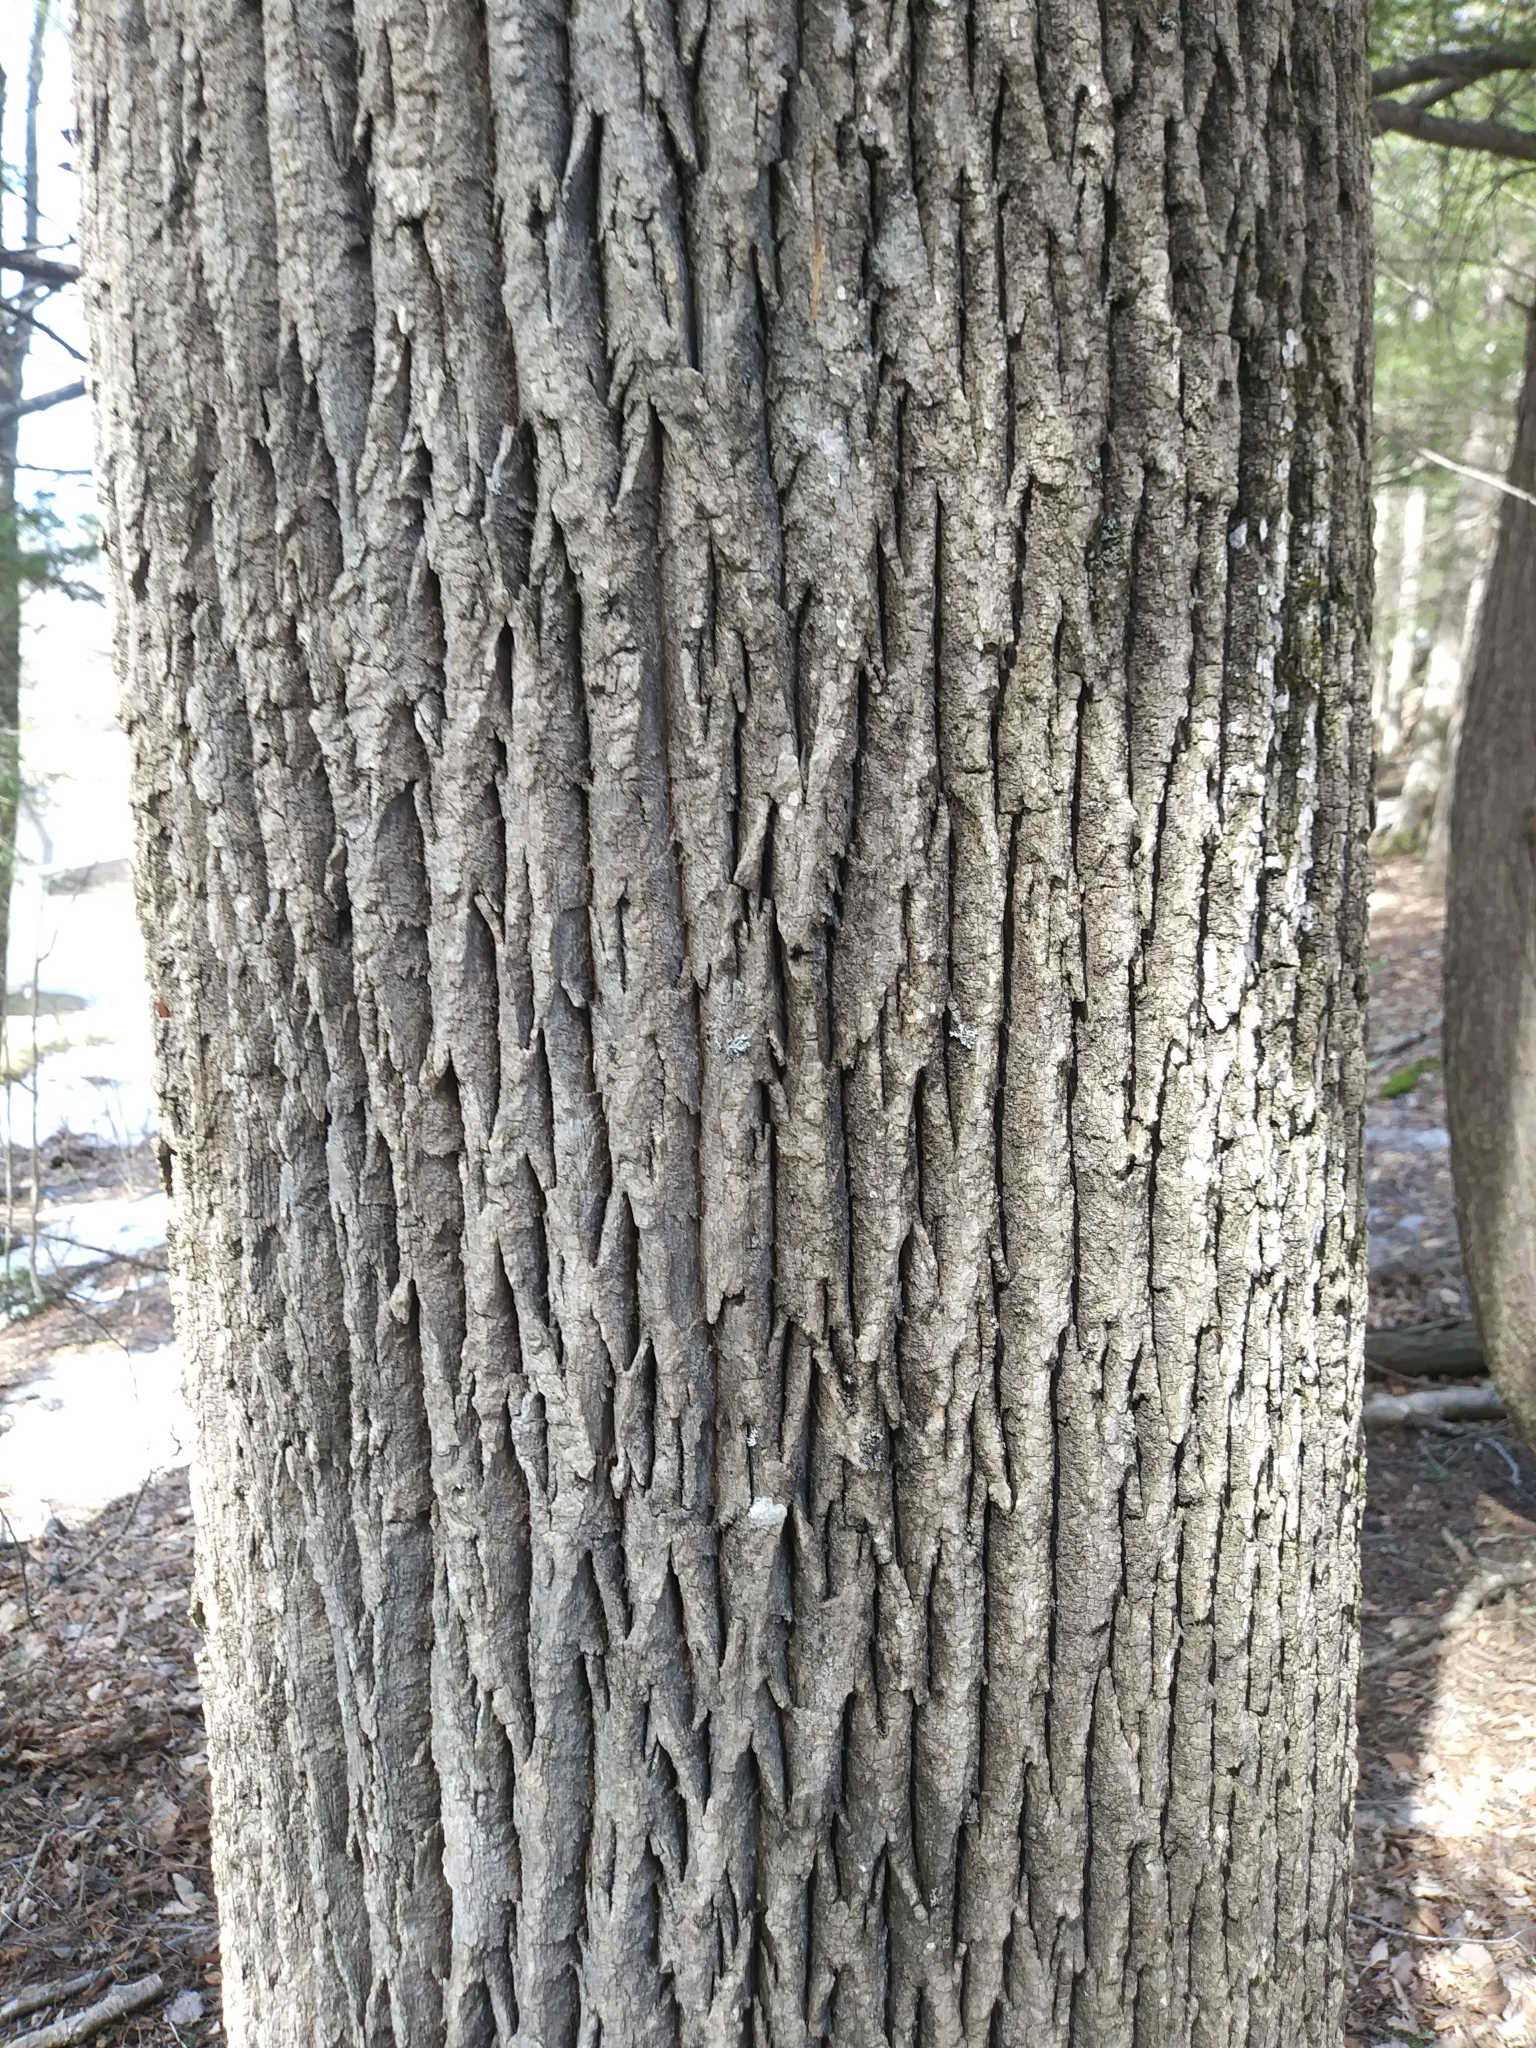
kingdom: Plantae
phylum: Tracheophyta
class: Magnoliopsida
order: Lamiales
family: Oleaceae
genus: Fraxinus
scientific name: Fraxinus americana
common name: White ash
